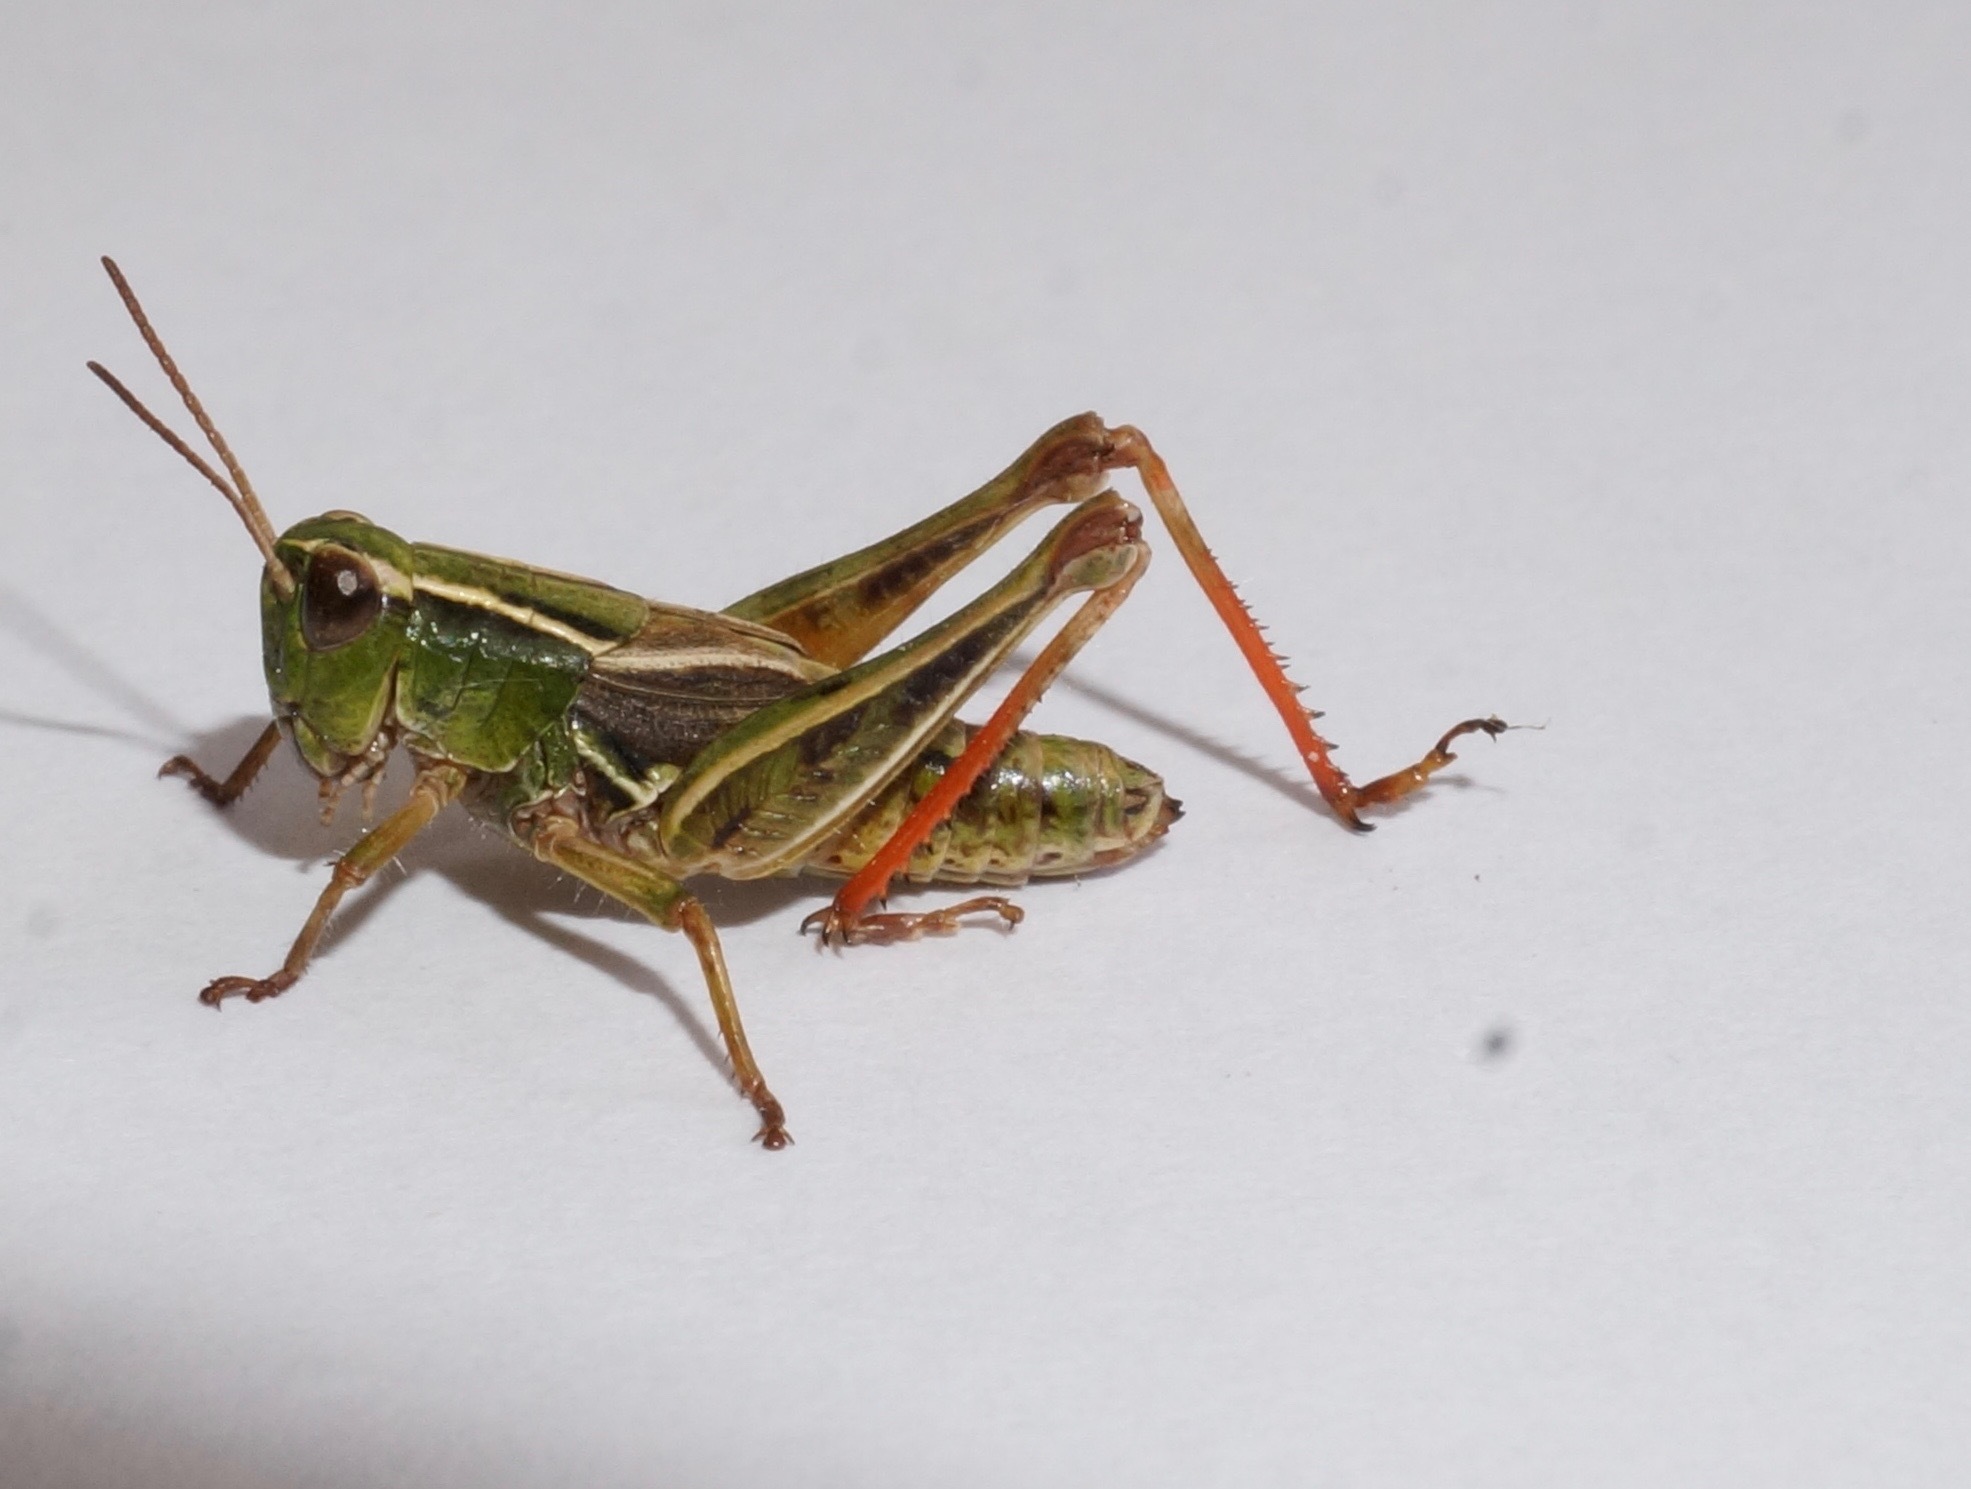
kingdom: Animalia
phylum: Arthropoda
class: Insecta
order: Orthoptera
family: Acrididae
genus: Phaulacridium
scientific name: Phaulacridium marginale
